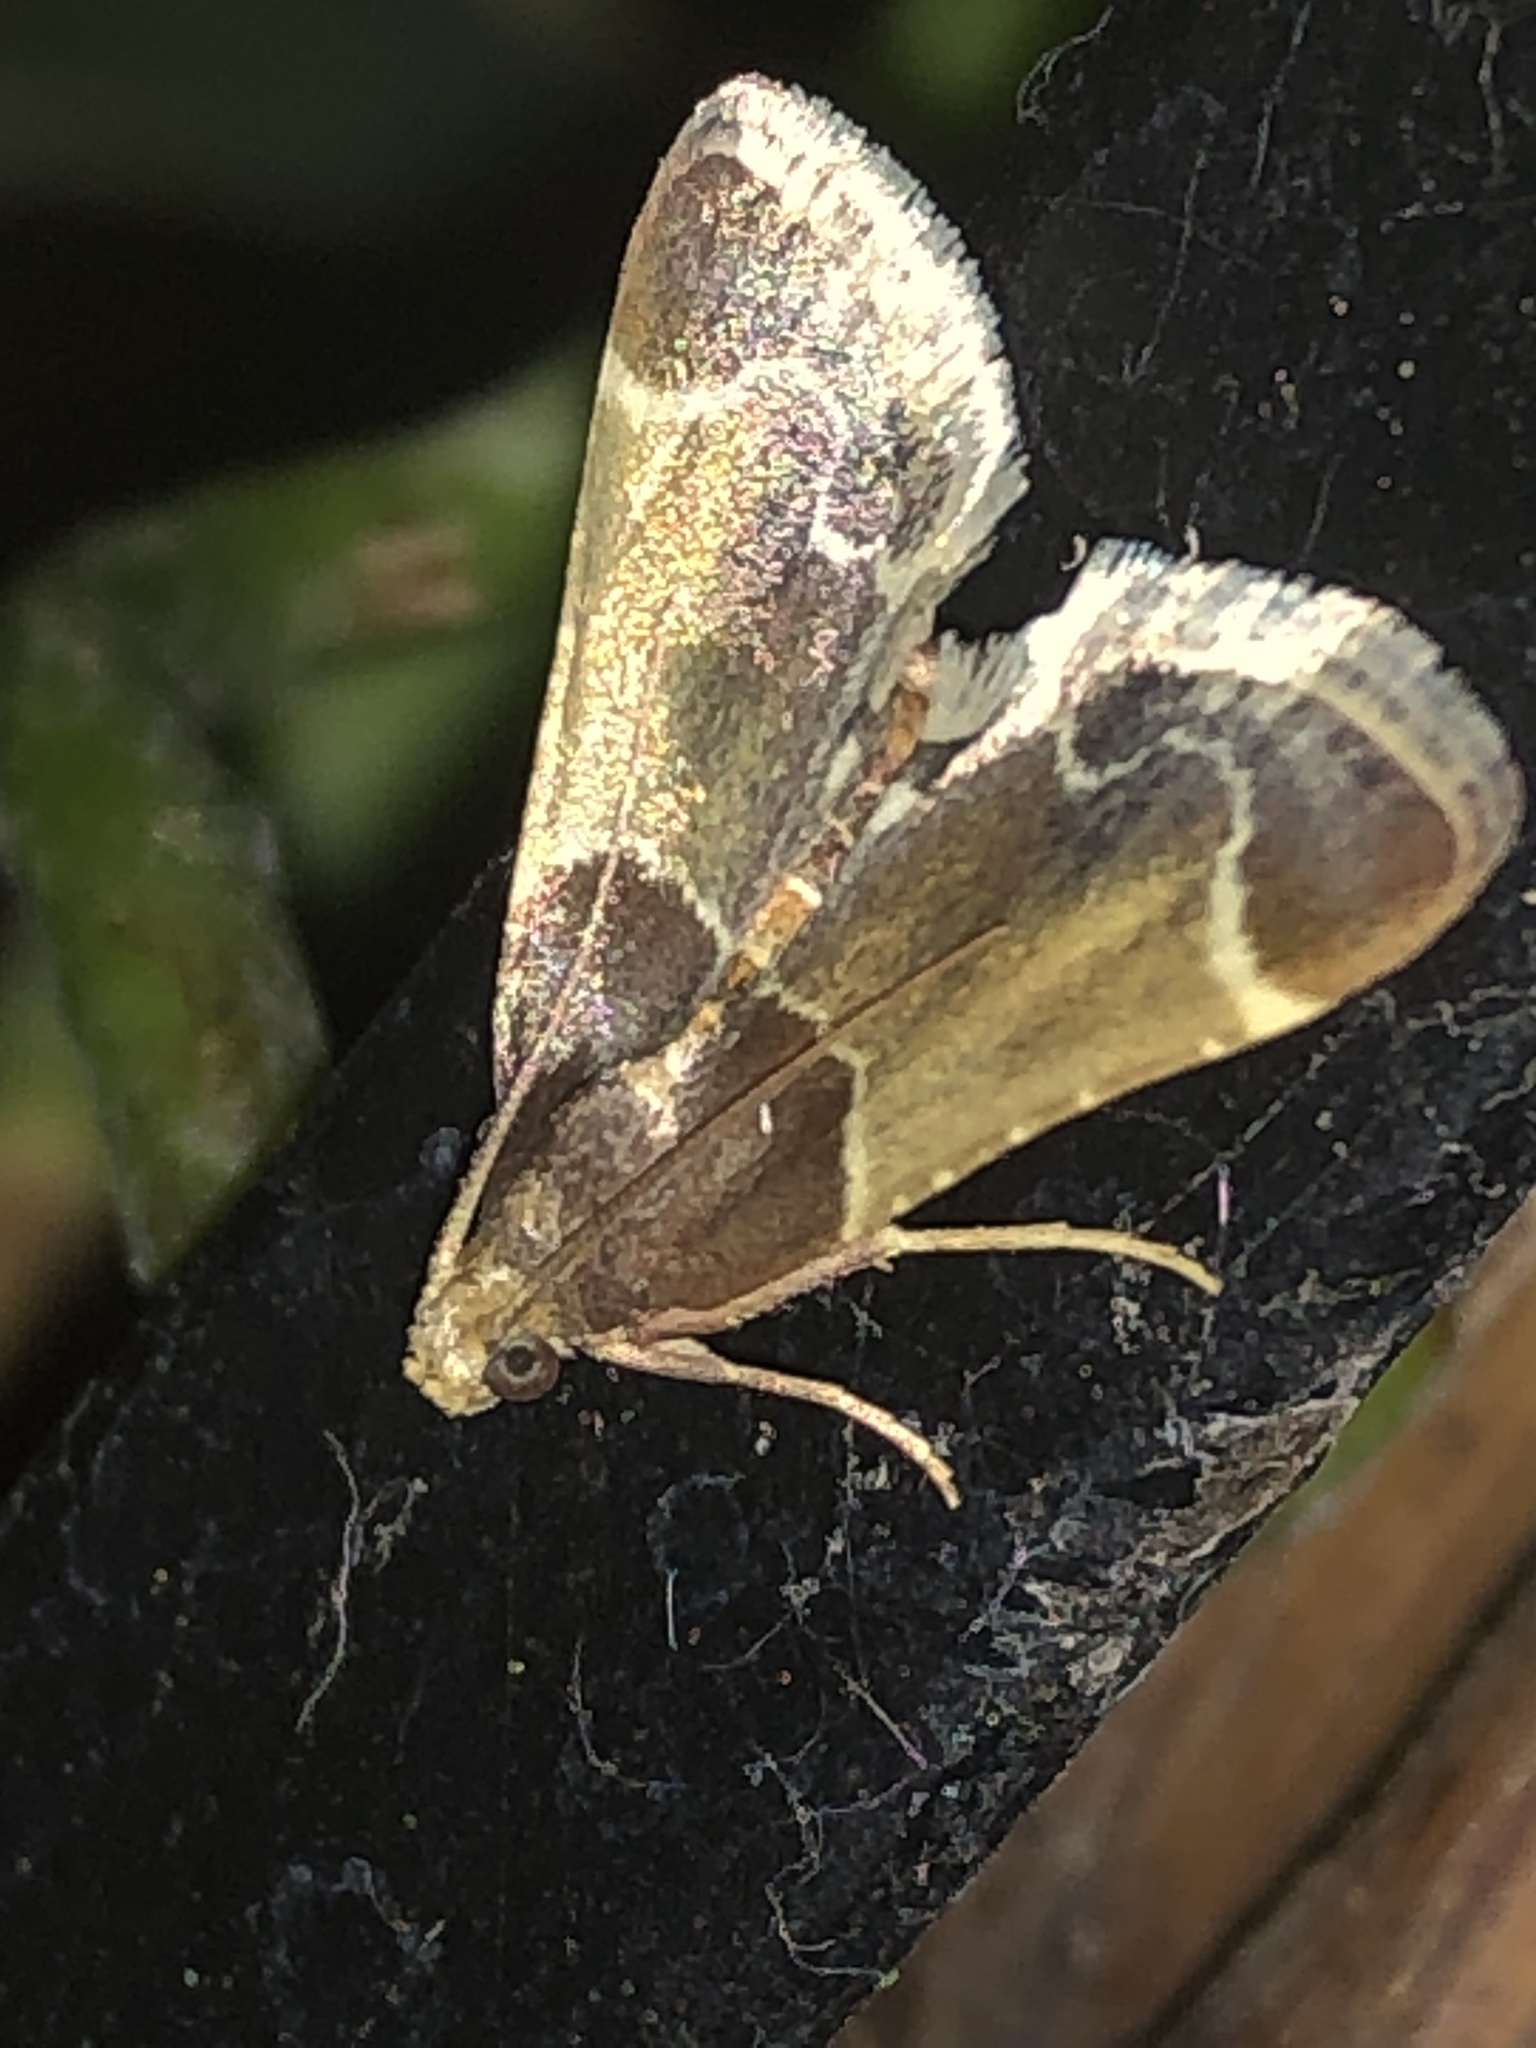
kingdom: Animalia
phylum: Arthropoda
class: Insecta
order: Lepidoptera
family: Pyralidae
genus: Pyralis
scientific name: Pyralis farinalis
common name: Meal moth
